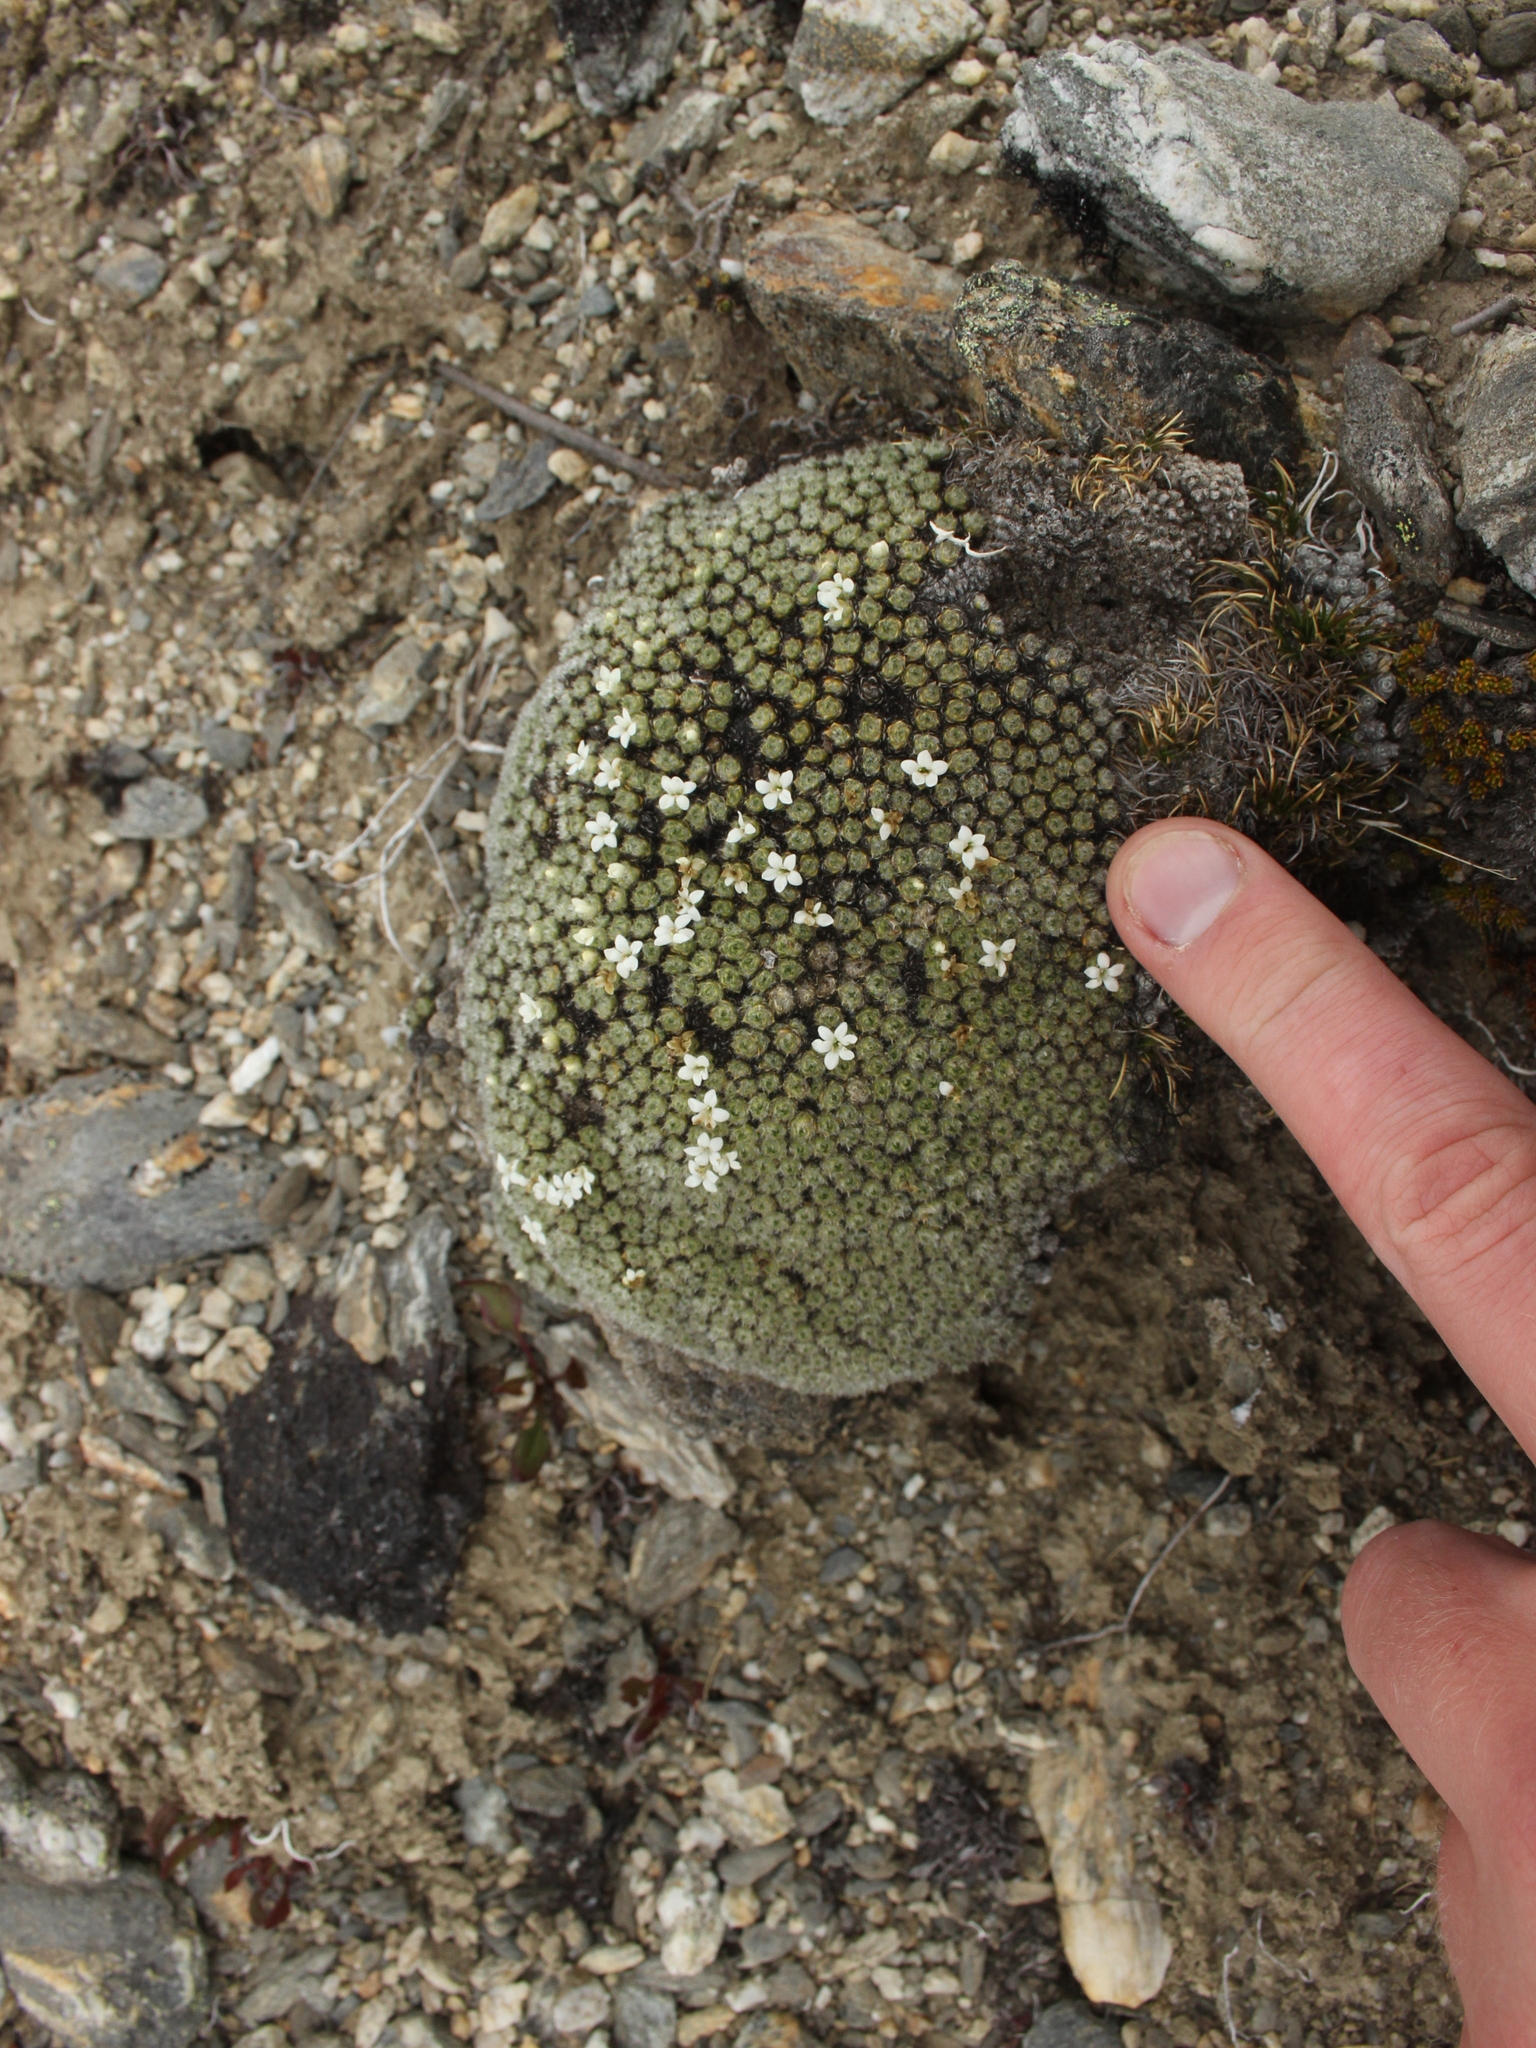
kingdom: Plantae
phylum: Tracheophyta
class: Magnoliopsida
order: Lamiales
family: Plantaginaceae
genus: Veronica
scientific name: Veronica thomsonii
